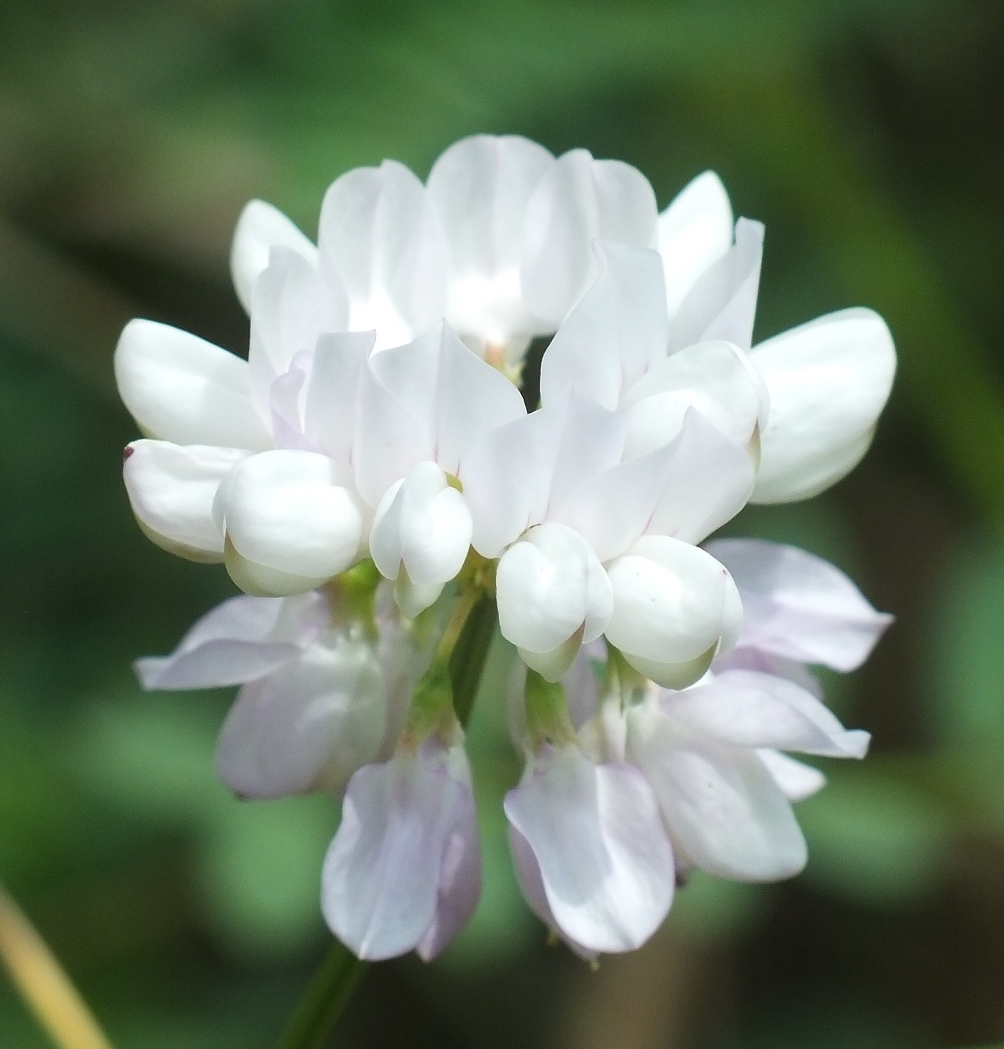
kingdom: Plantae
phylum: Tracheophyta
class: Magnoliopsida
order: Fabales
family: Fabaceae
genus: Coronilla
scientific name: Coronilla varia
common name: Crownvetch
